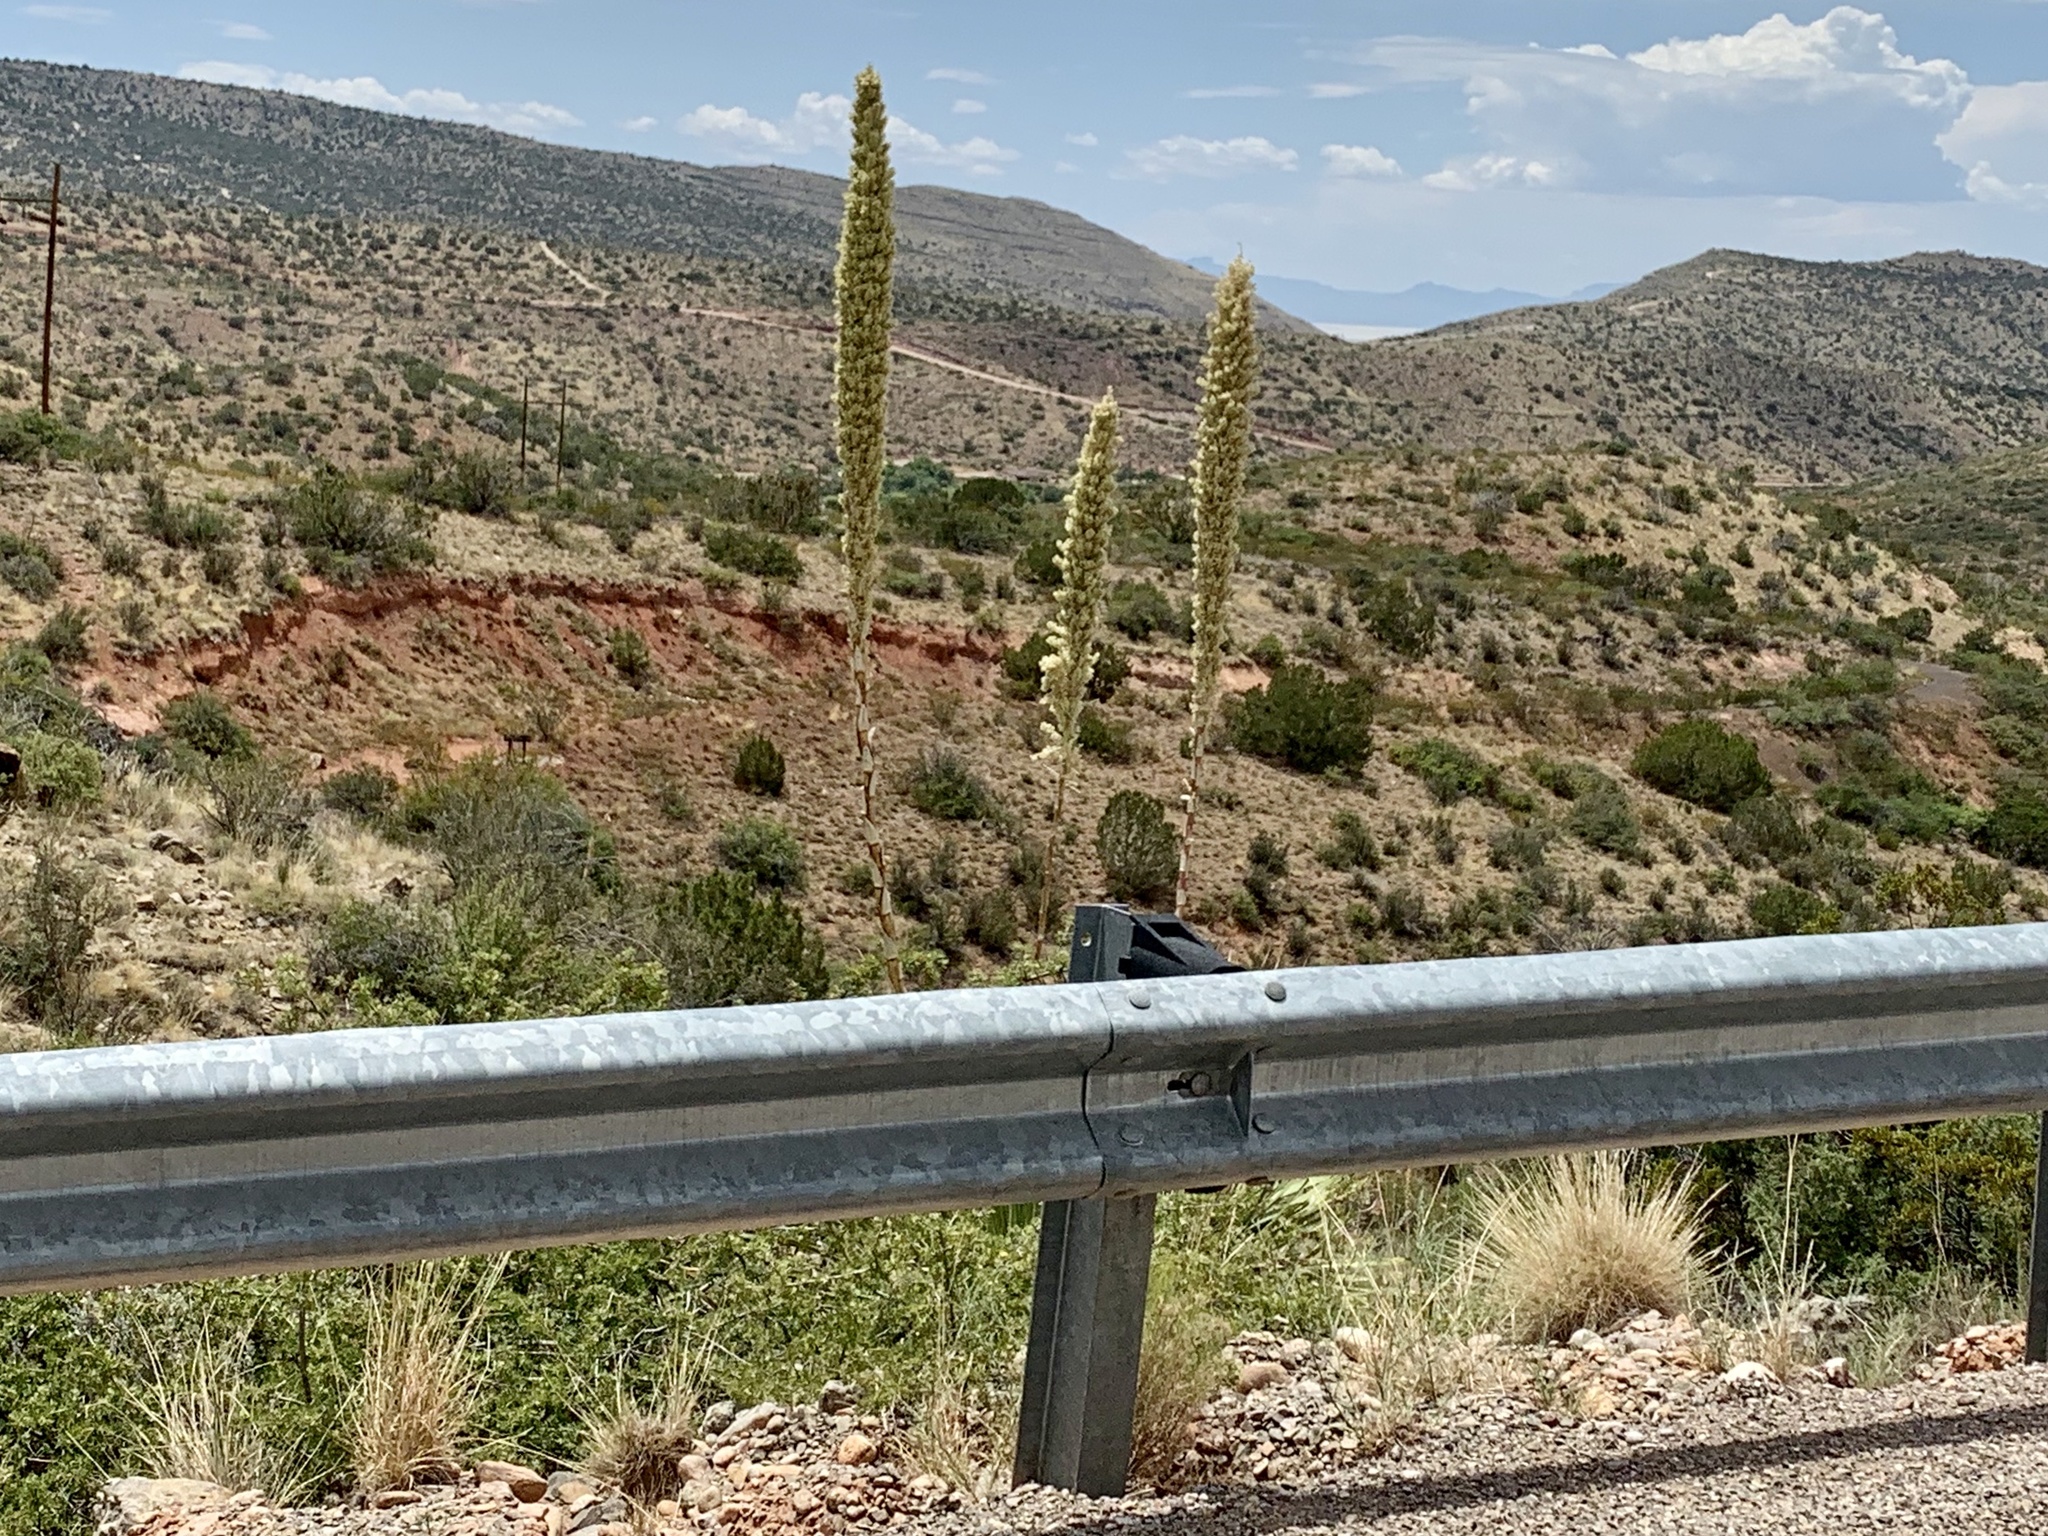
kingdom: Plantae
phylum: Tracheophyta
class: Liliopsida
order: Asparagales
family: Asparagaceae
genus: Dasylirion
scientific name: Dasylirion wheeleri
